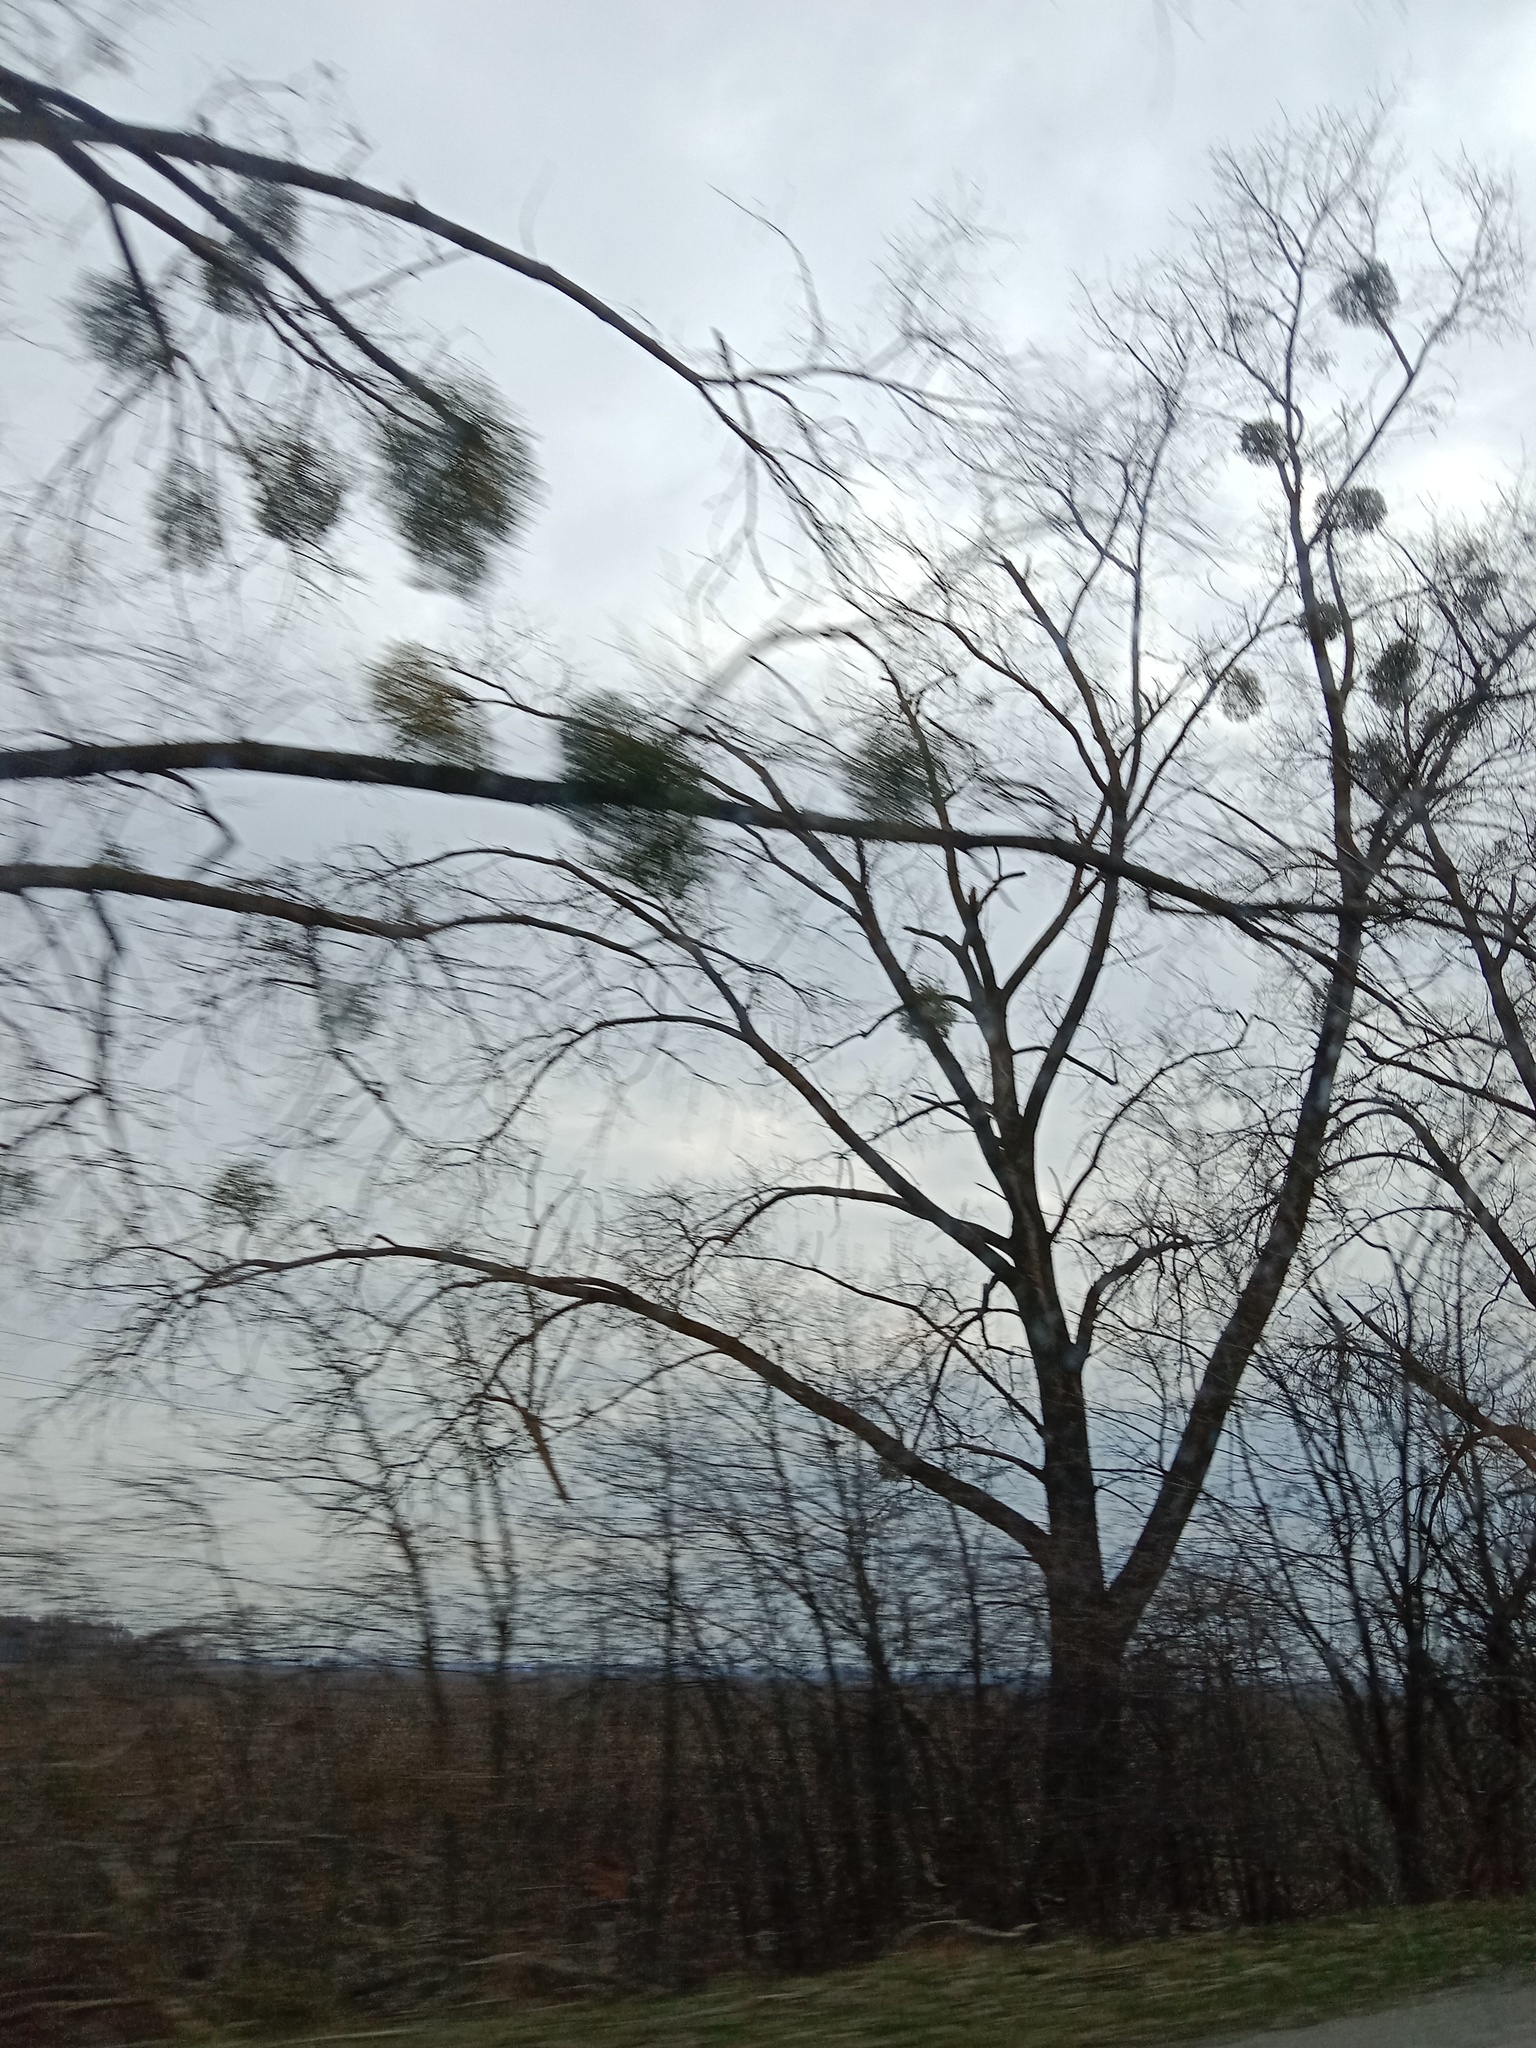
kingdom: Plantae
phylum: Tracheophyta
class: Magnoliopsida
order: Santalales
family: Viscaceae
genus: Viscum
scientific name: Viscum album
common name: Mistletoe
